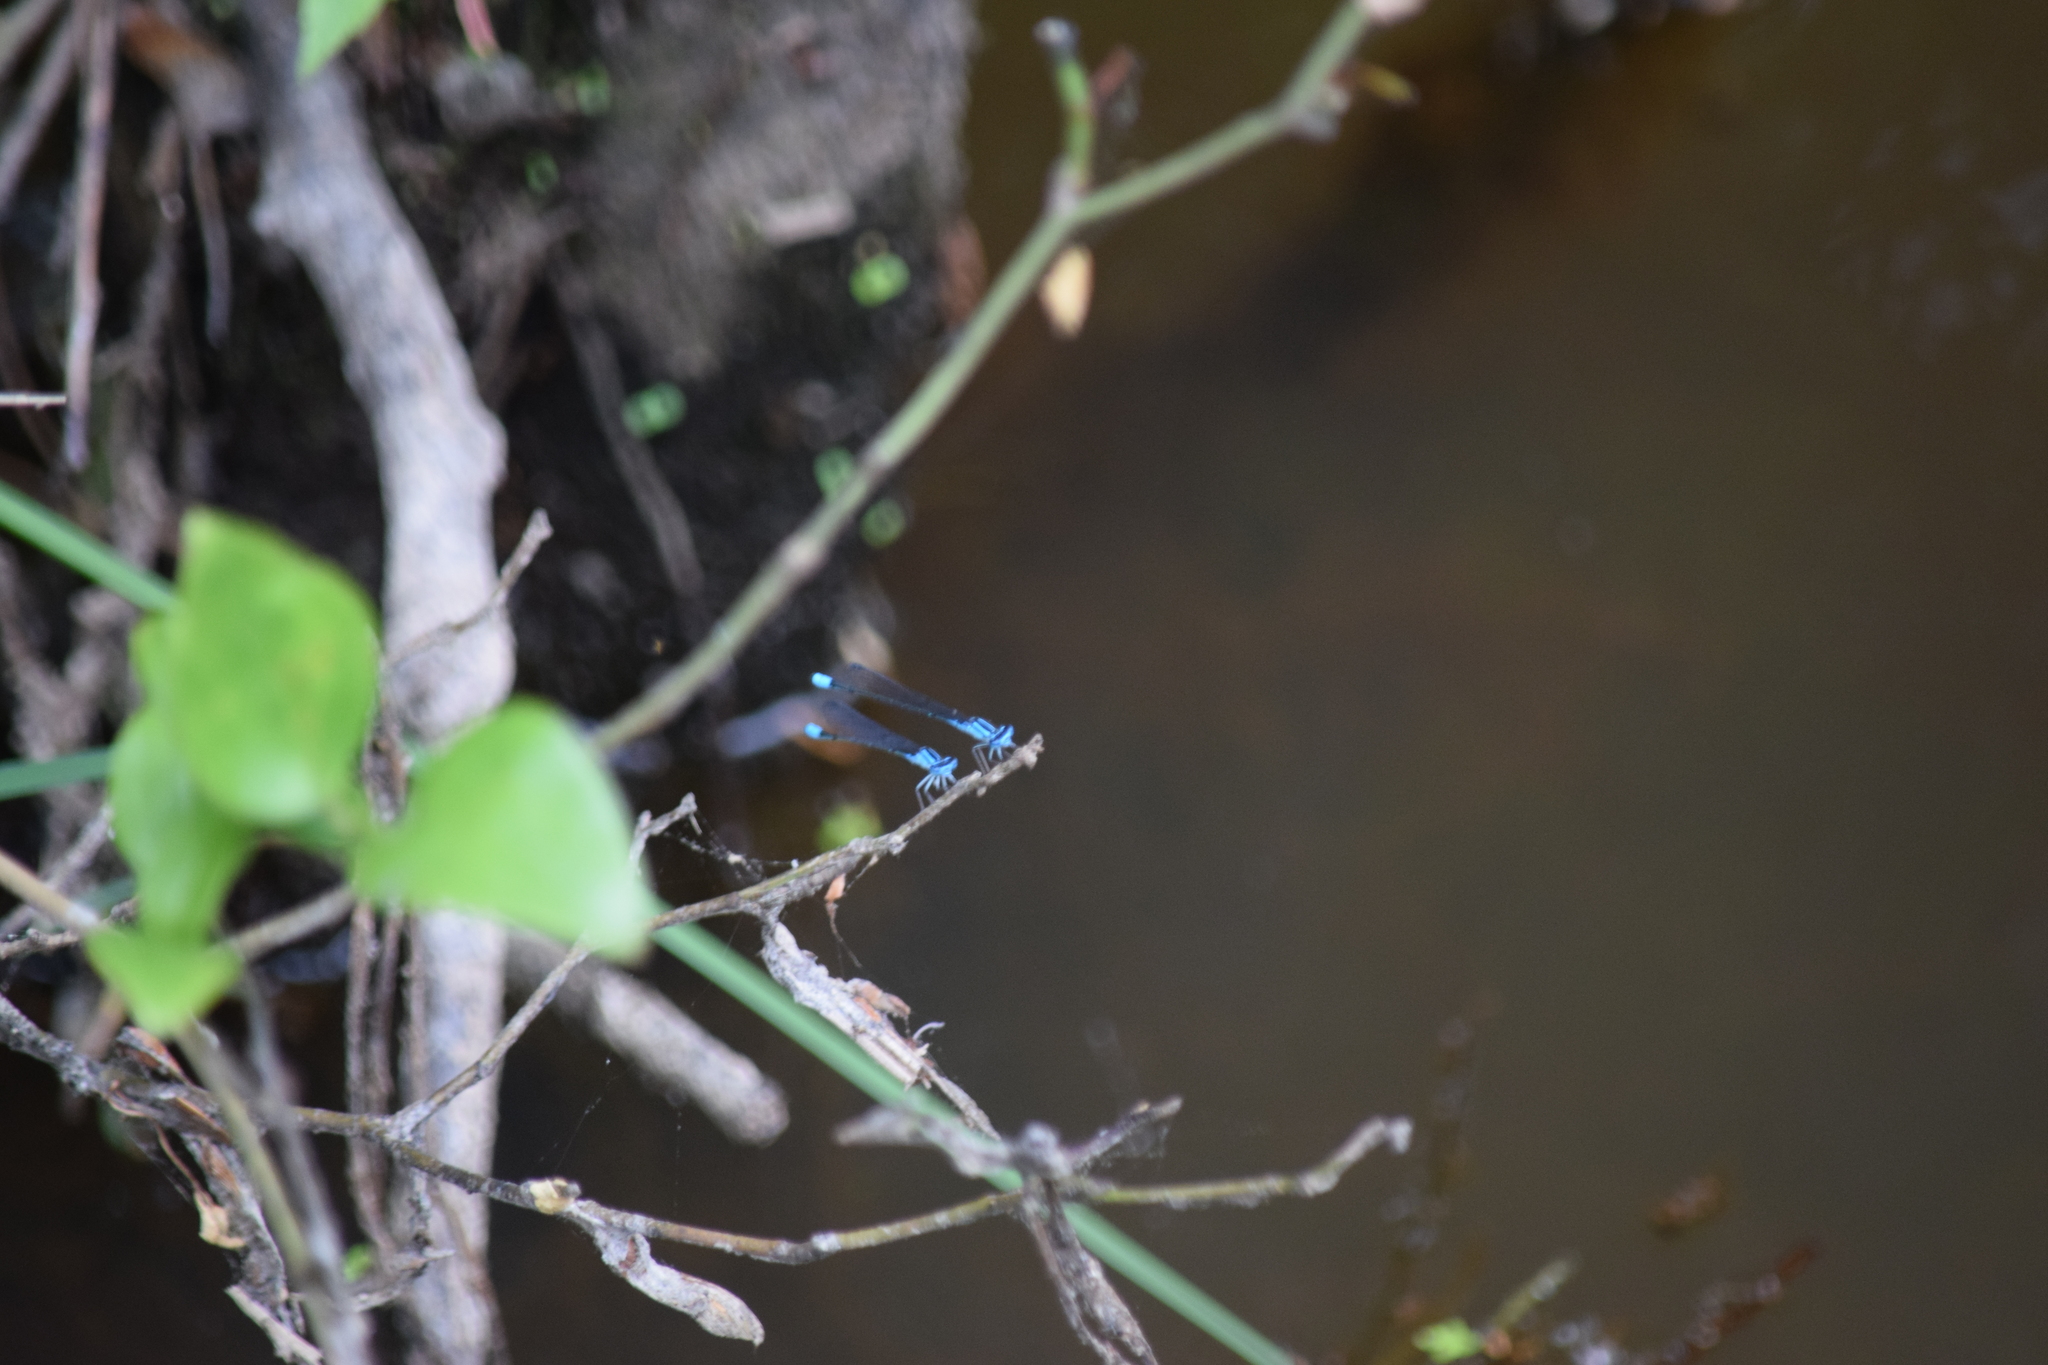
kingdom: Animalia
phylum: Arthropoda
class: Insecta
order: Odonata
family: Coenagrionidae
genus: Enallagma
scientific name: Enallagma divagans
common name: Turquoise bluet
